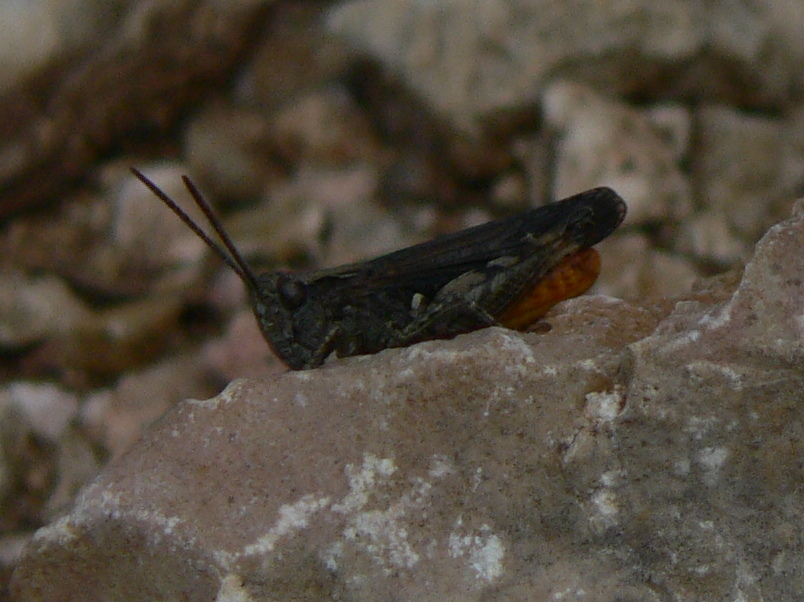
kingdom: Animalia
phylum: Arthropoda
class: Insecta
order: Orthoptera
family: Acrididae
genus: Omocestus
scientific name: Omocestus rufipes
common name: Woodland grasshopper
